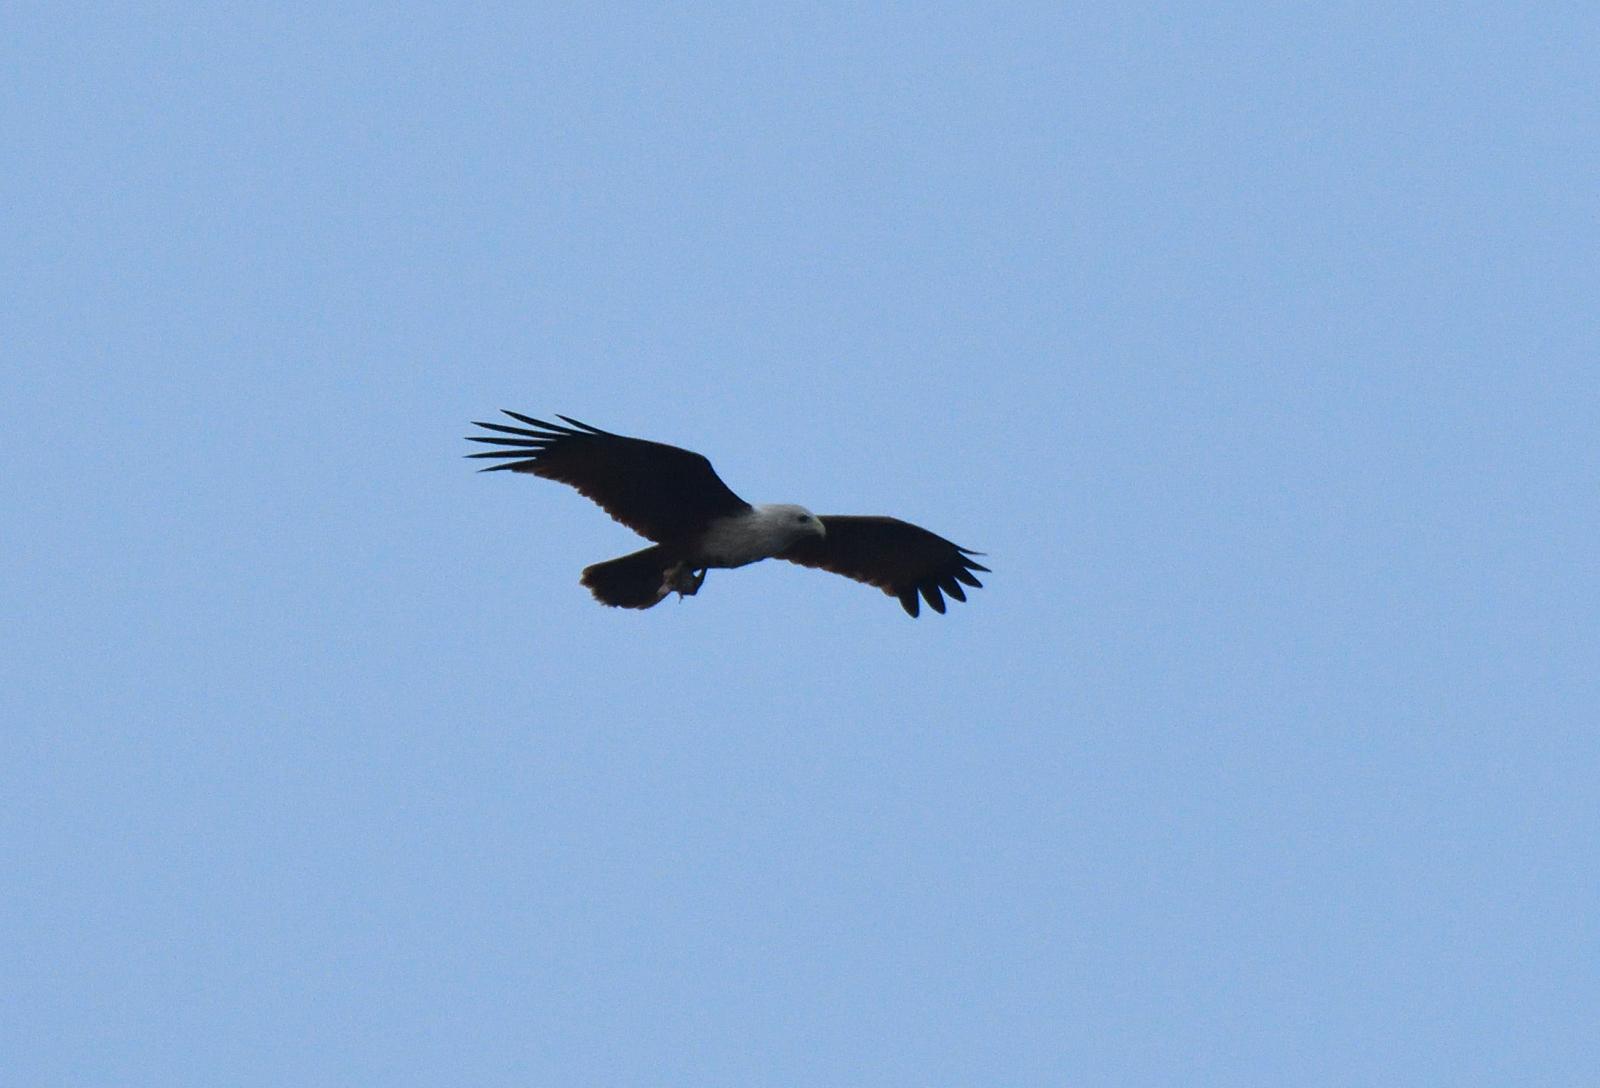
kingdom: Animalia
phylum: Chordata
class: Aves
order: Accipitriformes
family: Accipitridae
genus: Haliastur
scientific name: Haliastur indus
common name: Brahminy kite
